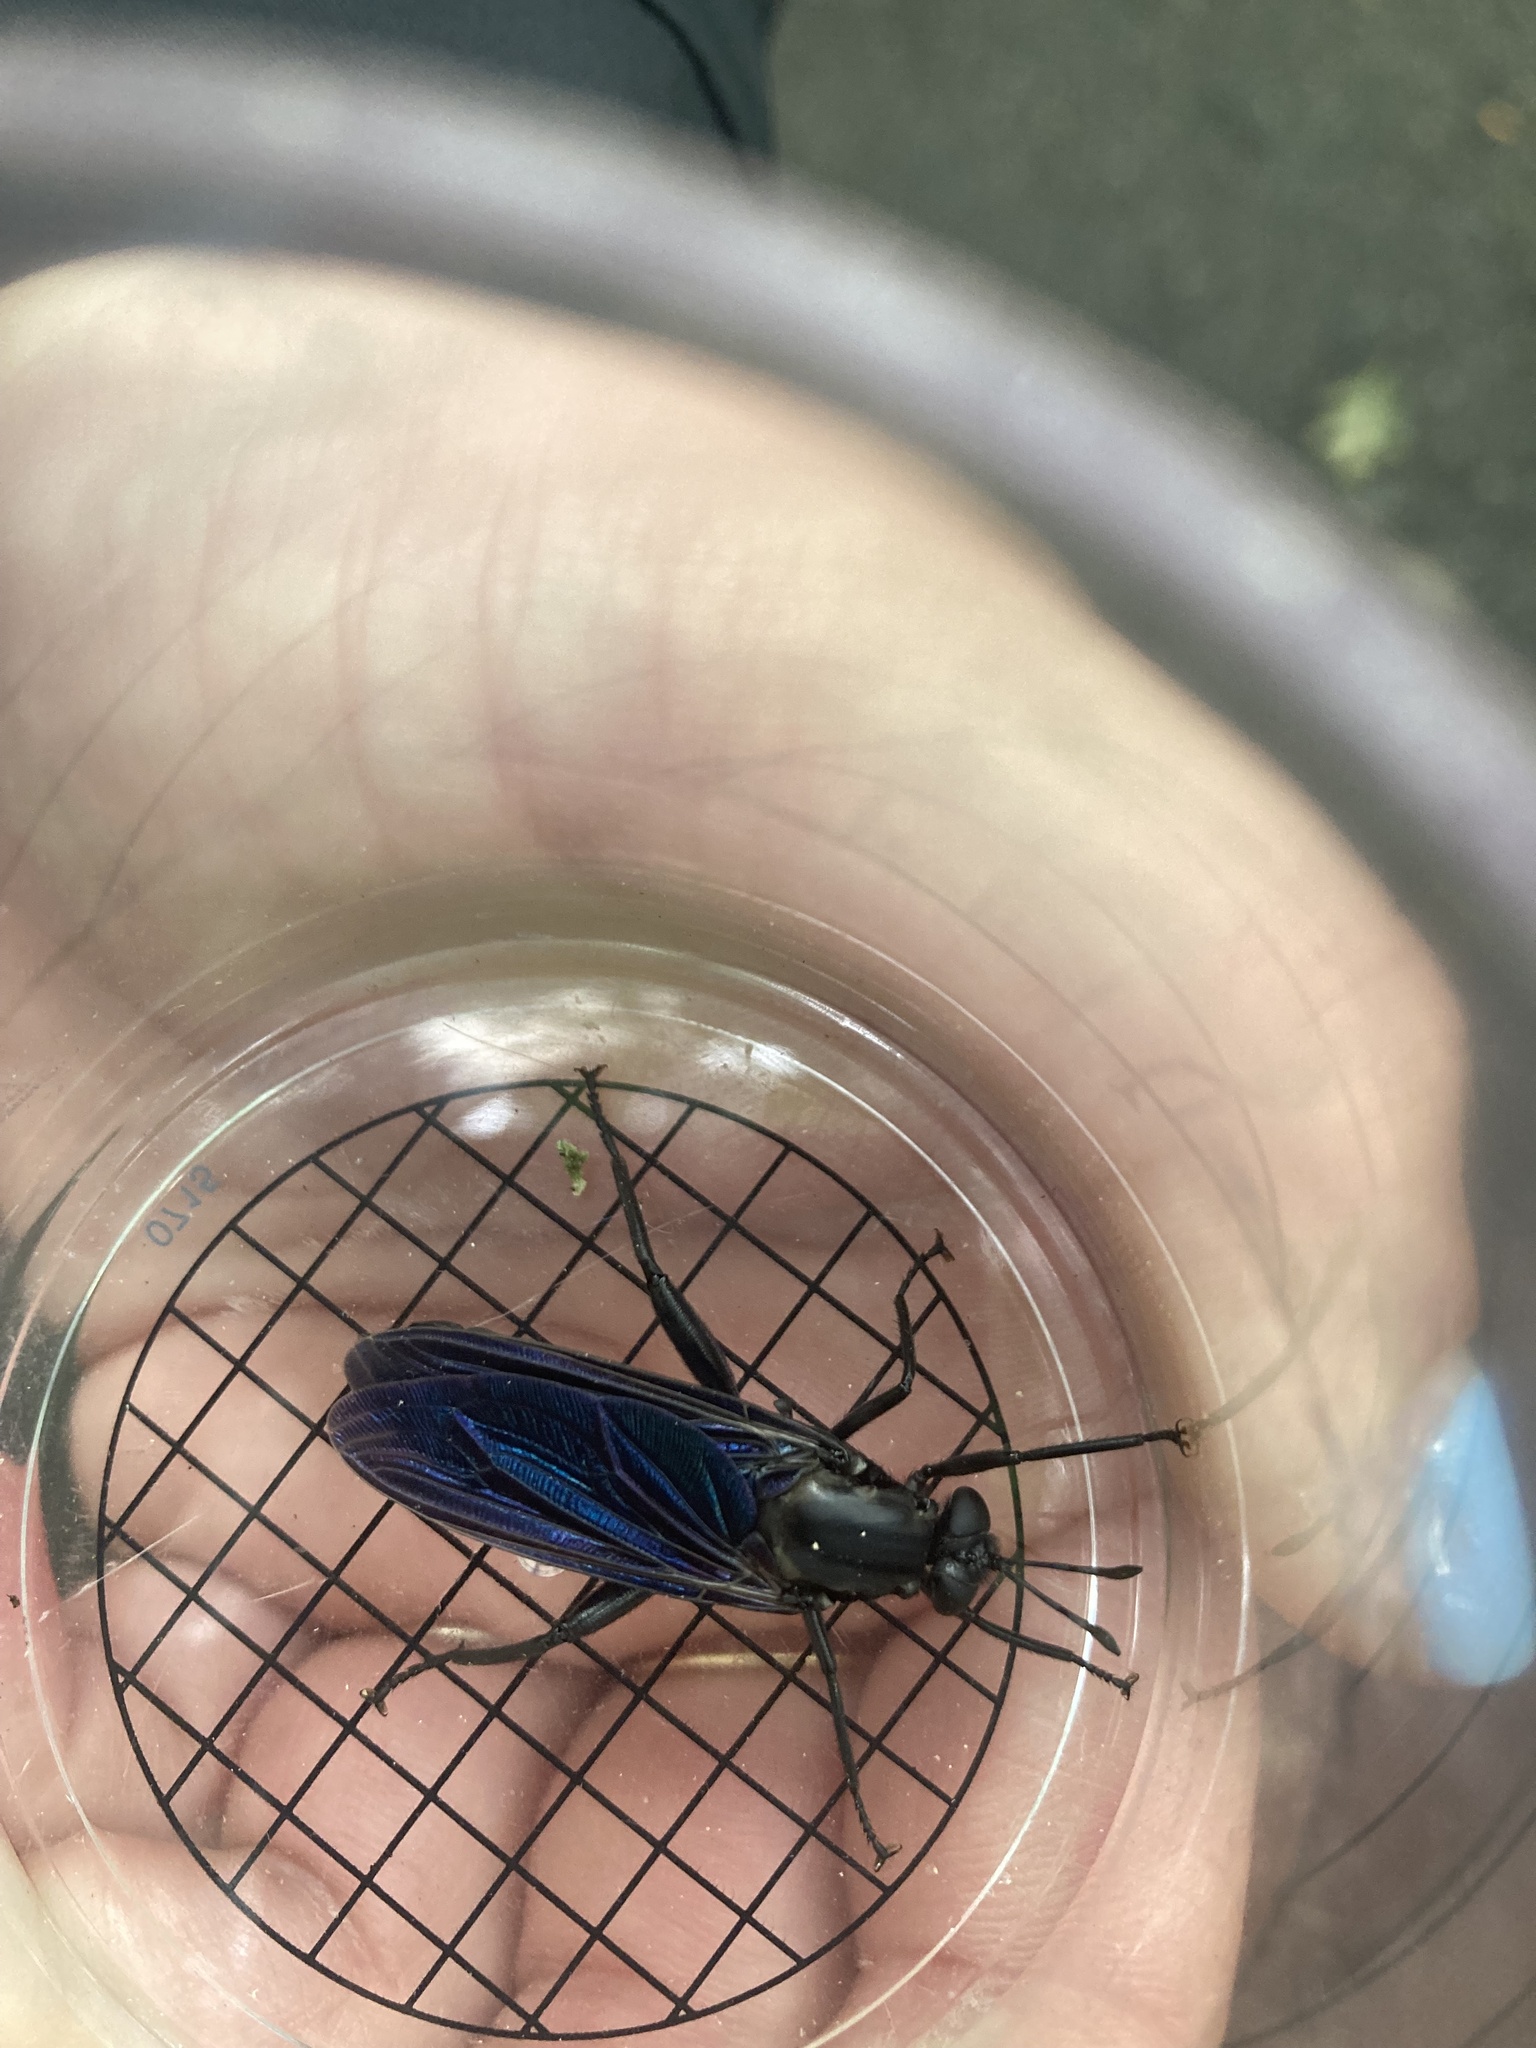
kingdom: Animalia
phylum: Arthropoda
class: Insecta
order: Diptera
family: Mydidae
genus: Mydas
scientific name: Mydas atratus
